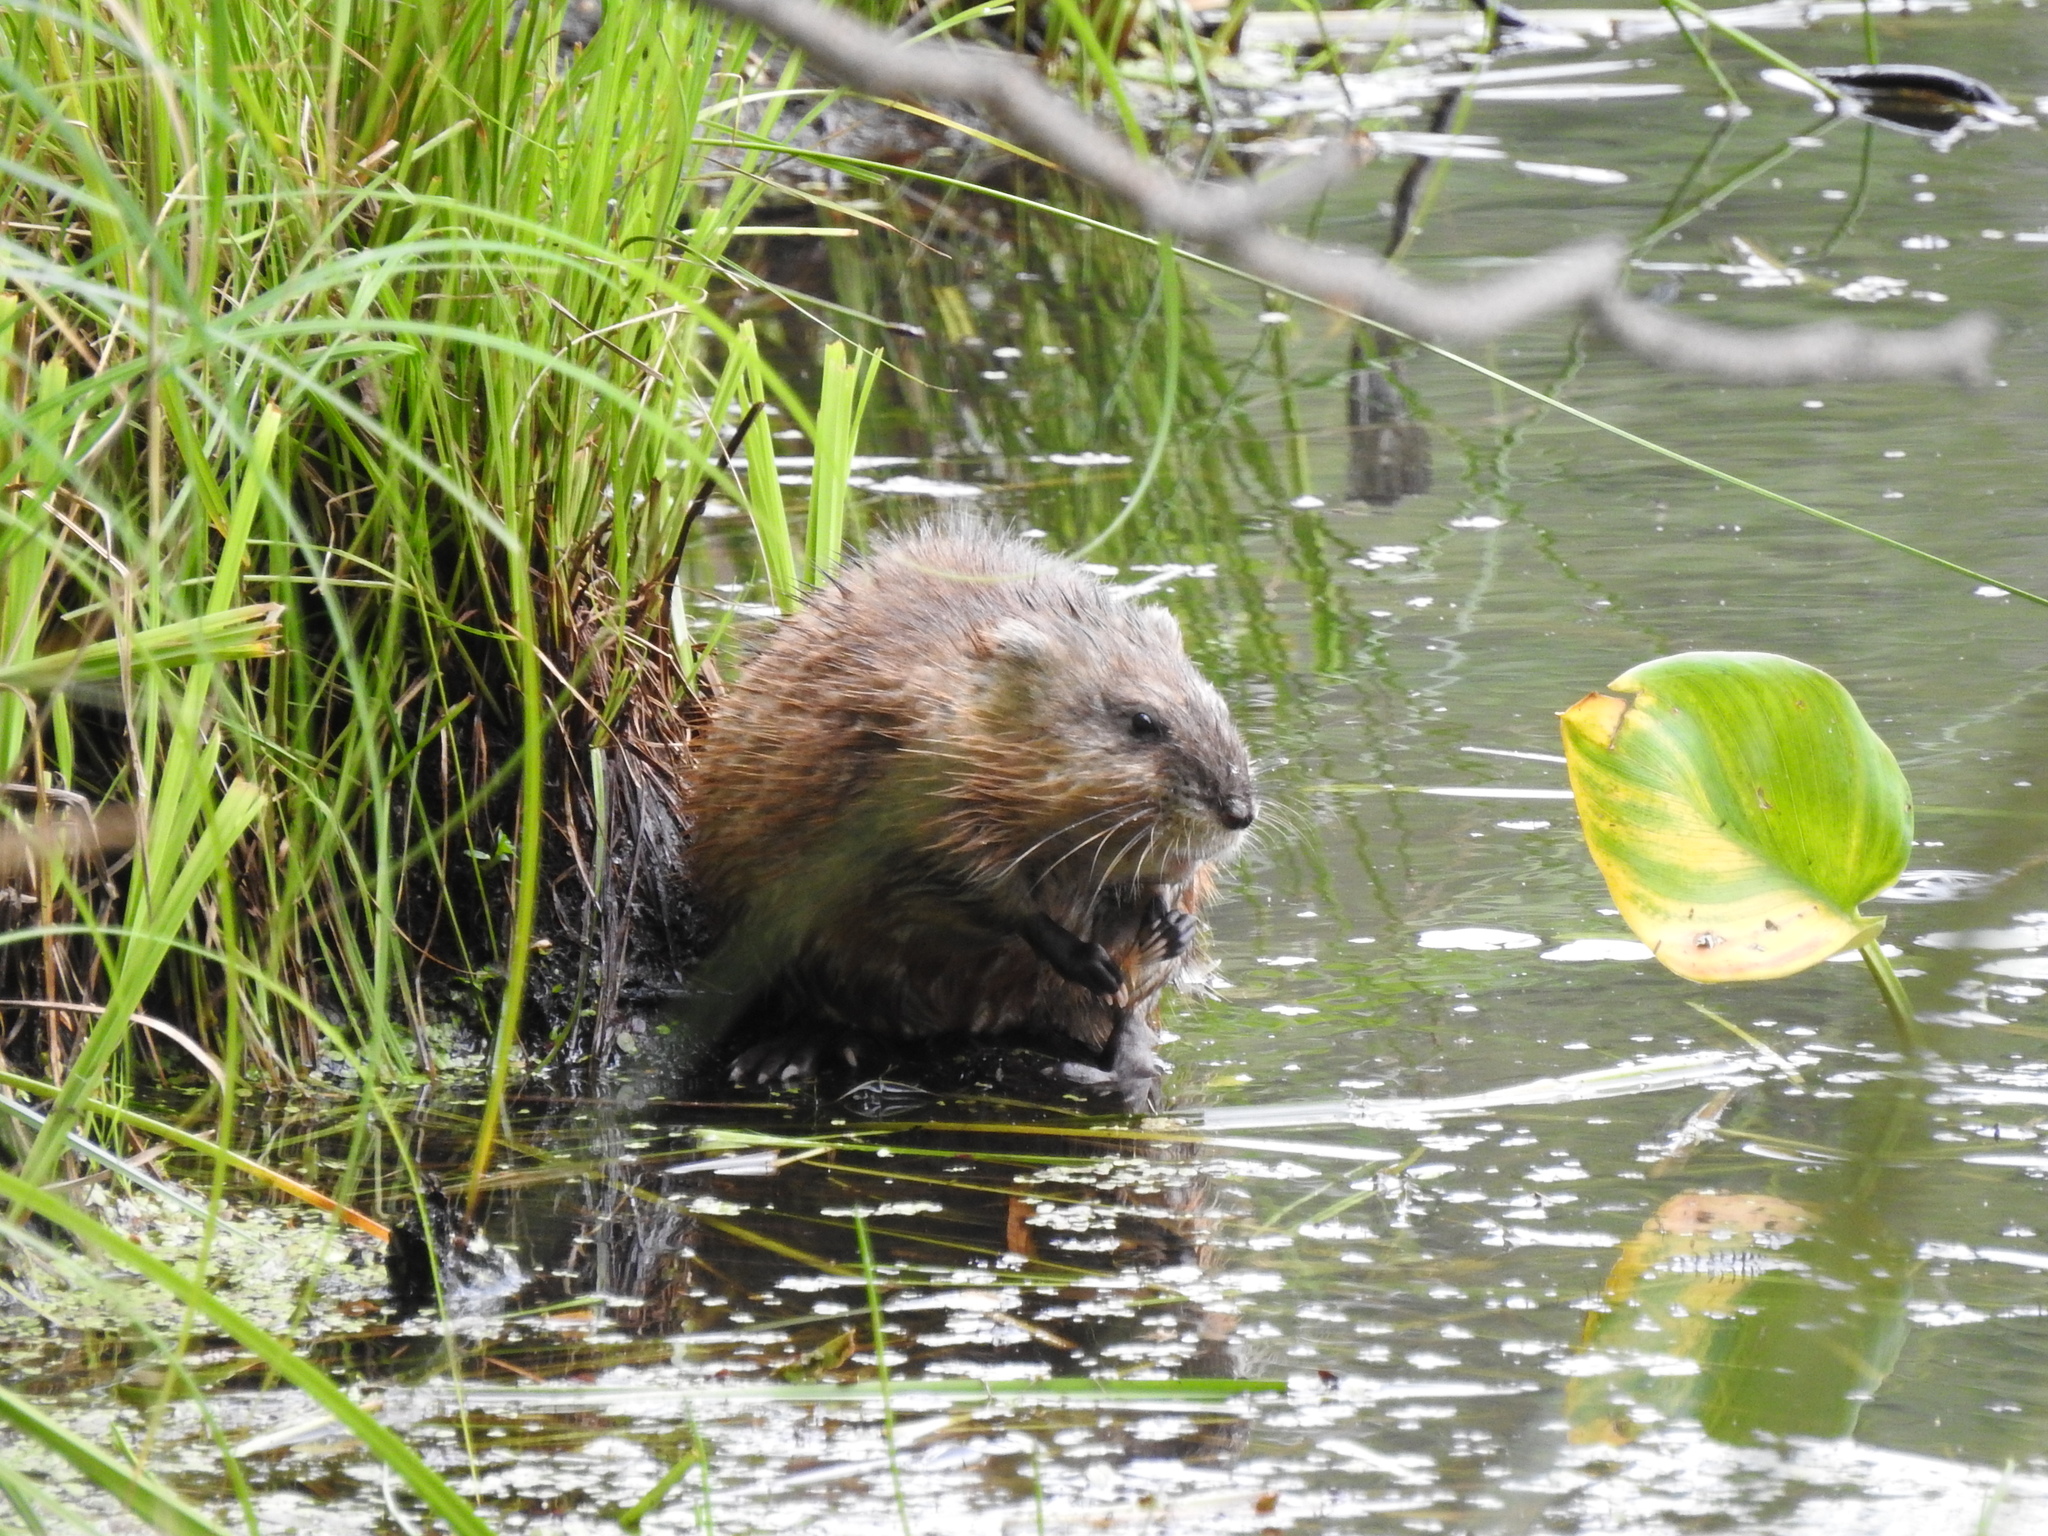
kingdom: Animalia
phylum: Chordata
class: Mammalia
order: Rodentia
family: Cricetidae
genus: Ondatra
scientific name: Ondatra zibethicus
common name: Muskrat
